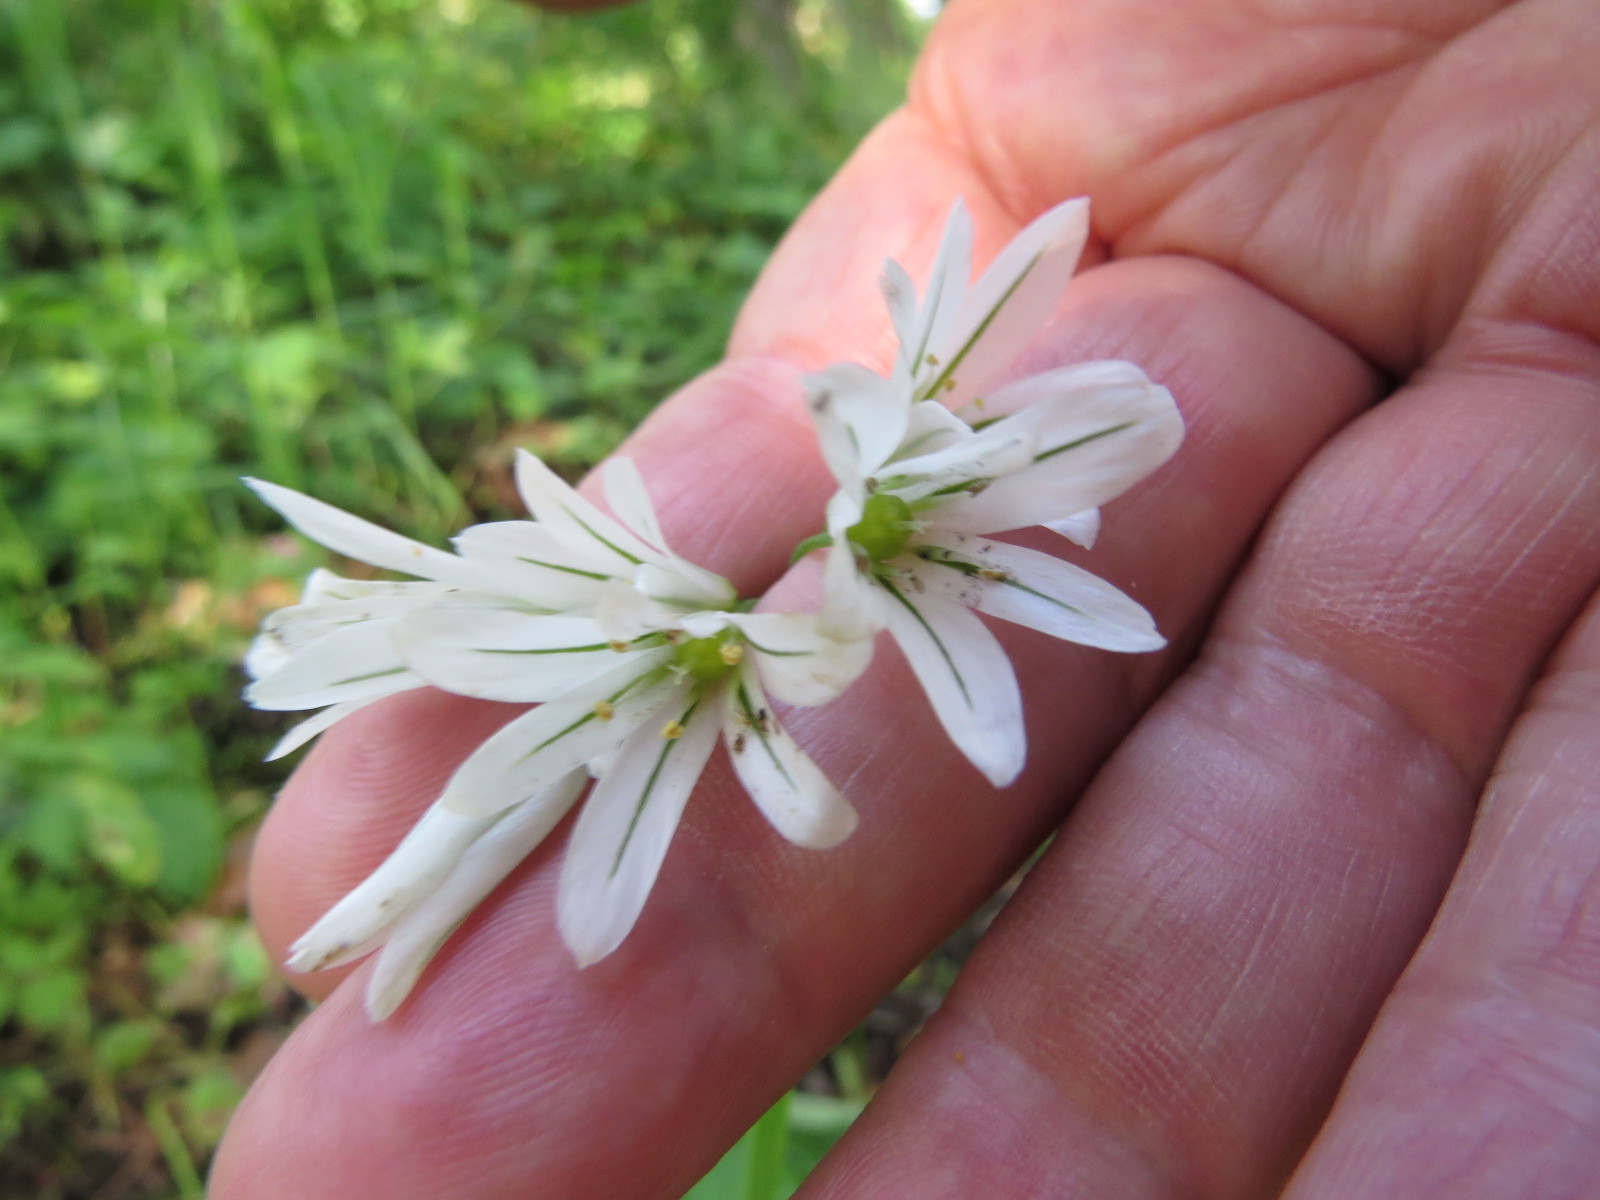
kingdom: Plantae
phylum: Tracheophyta
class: Liliopsida
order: Asparagales
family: Amaryllidaceae
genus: Allium
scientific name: Allium triquetrum
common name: Three-cornered garlic
